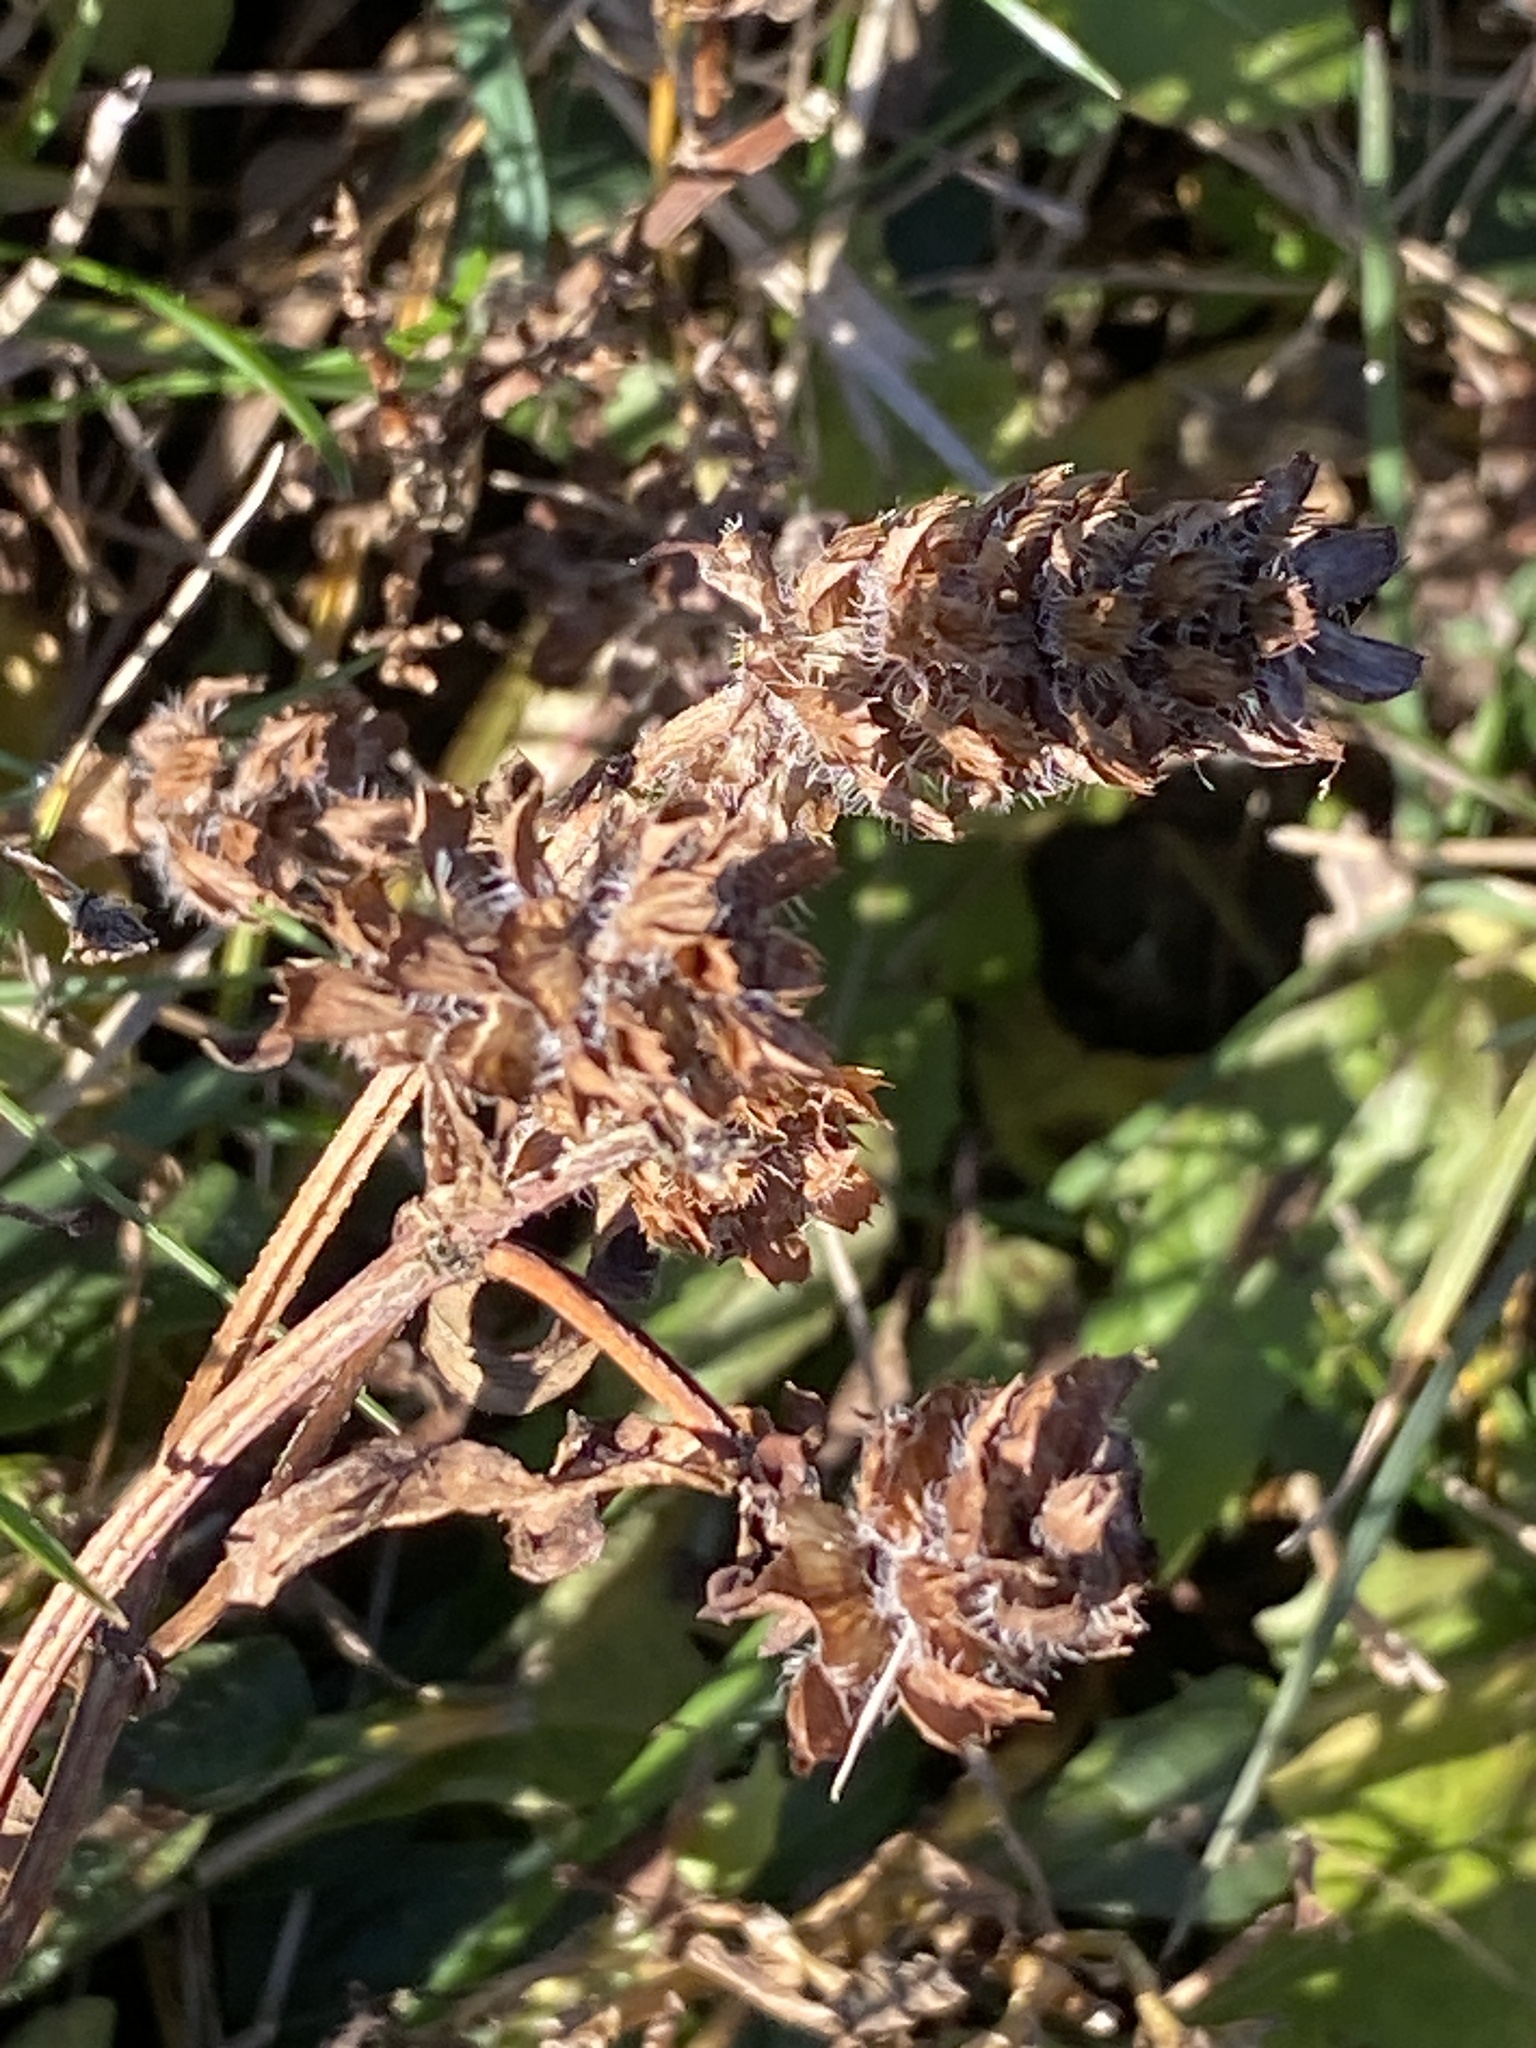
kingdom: Plantae
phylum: Tracheophyta
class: Magnoliopsida
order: Lamiales
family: Lamiaceae
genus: Prunella
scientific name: Prunella vulgaris
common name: Heal-all
